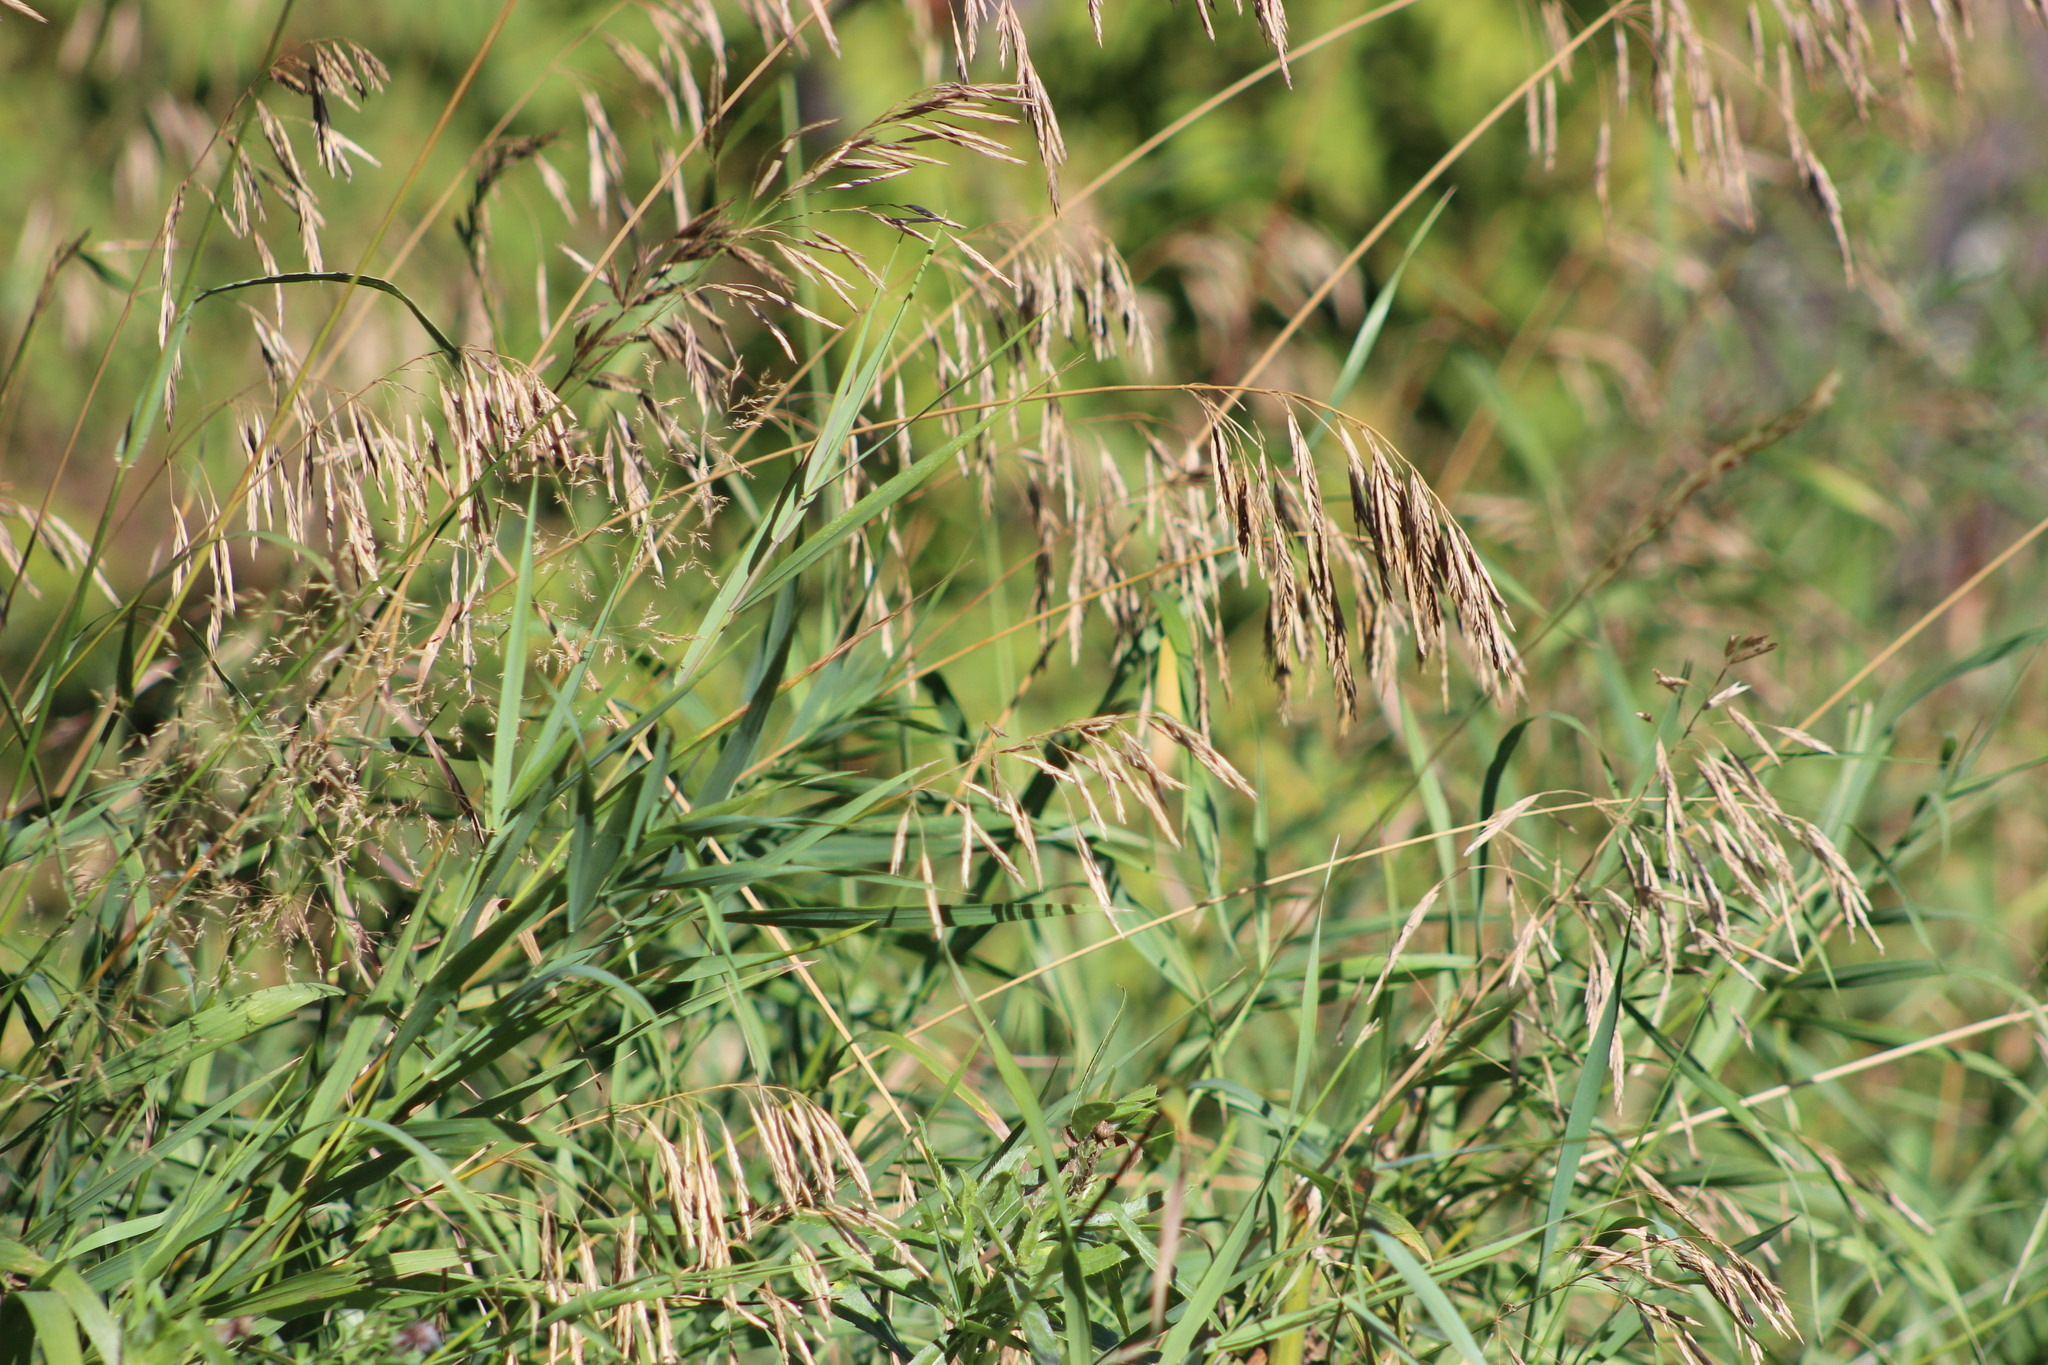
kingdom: Plantae
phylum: Tracheophyta
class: Liliopsida
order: Poales
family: Poaceae
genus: Bromus
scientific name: Bromus inermis
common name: Smooth brome
